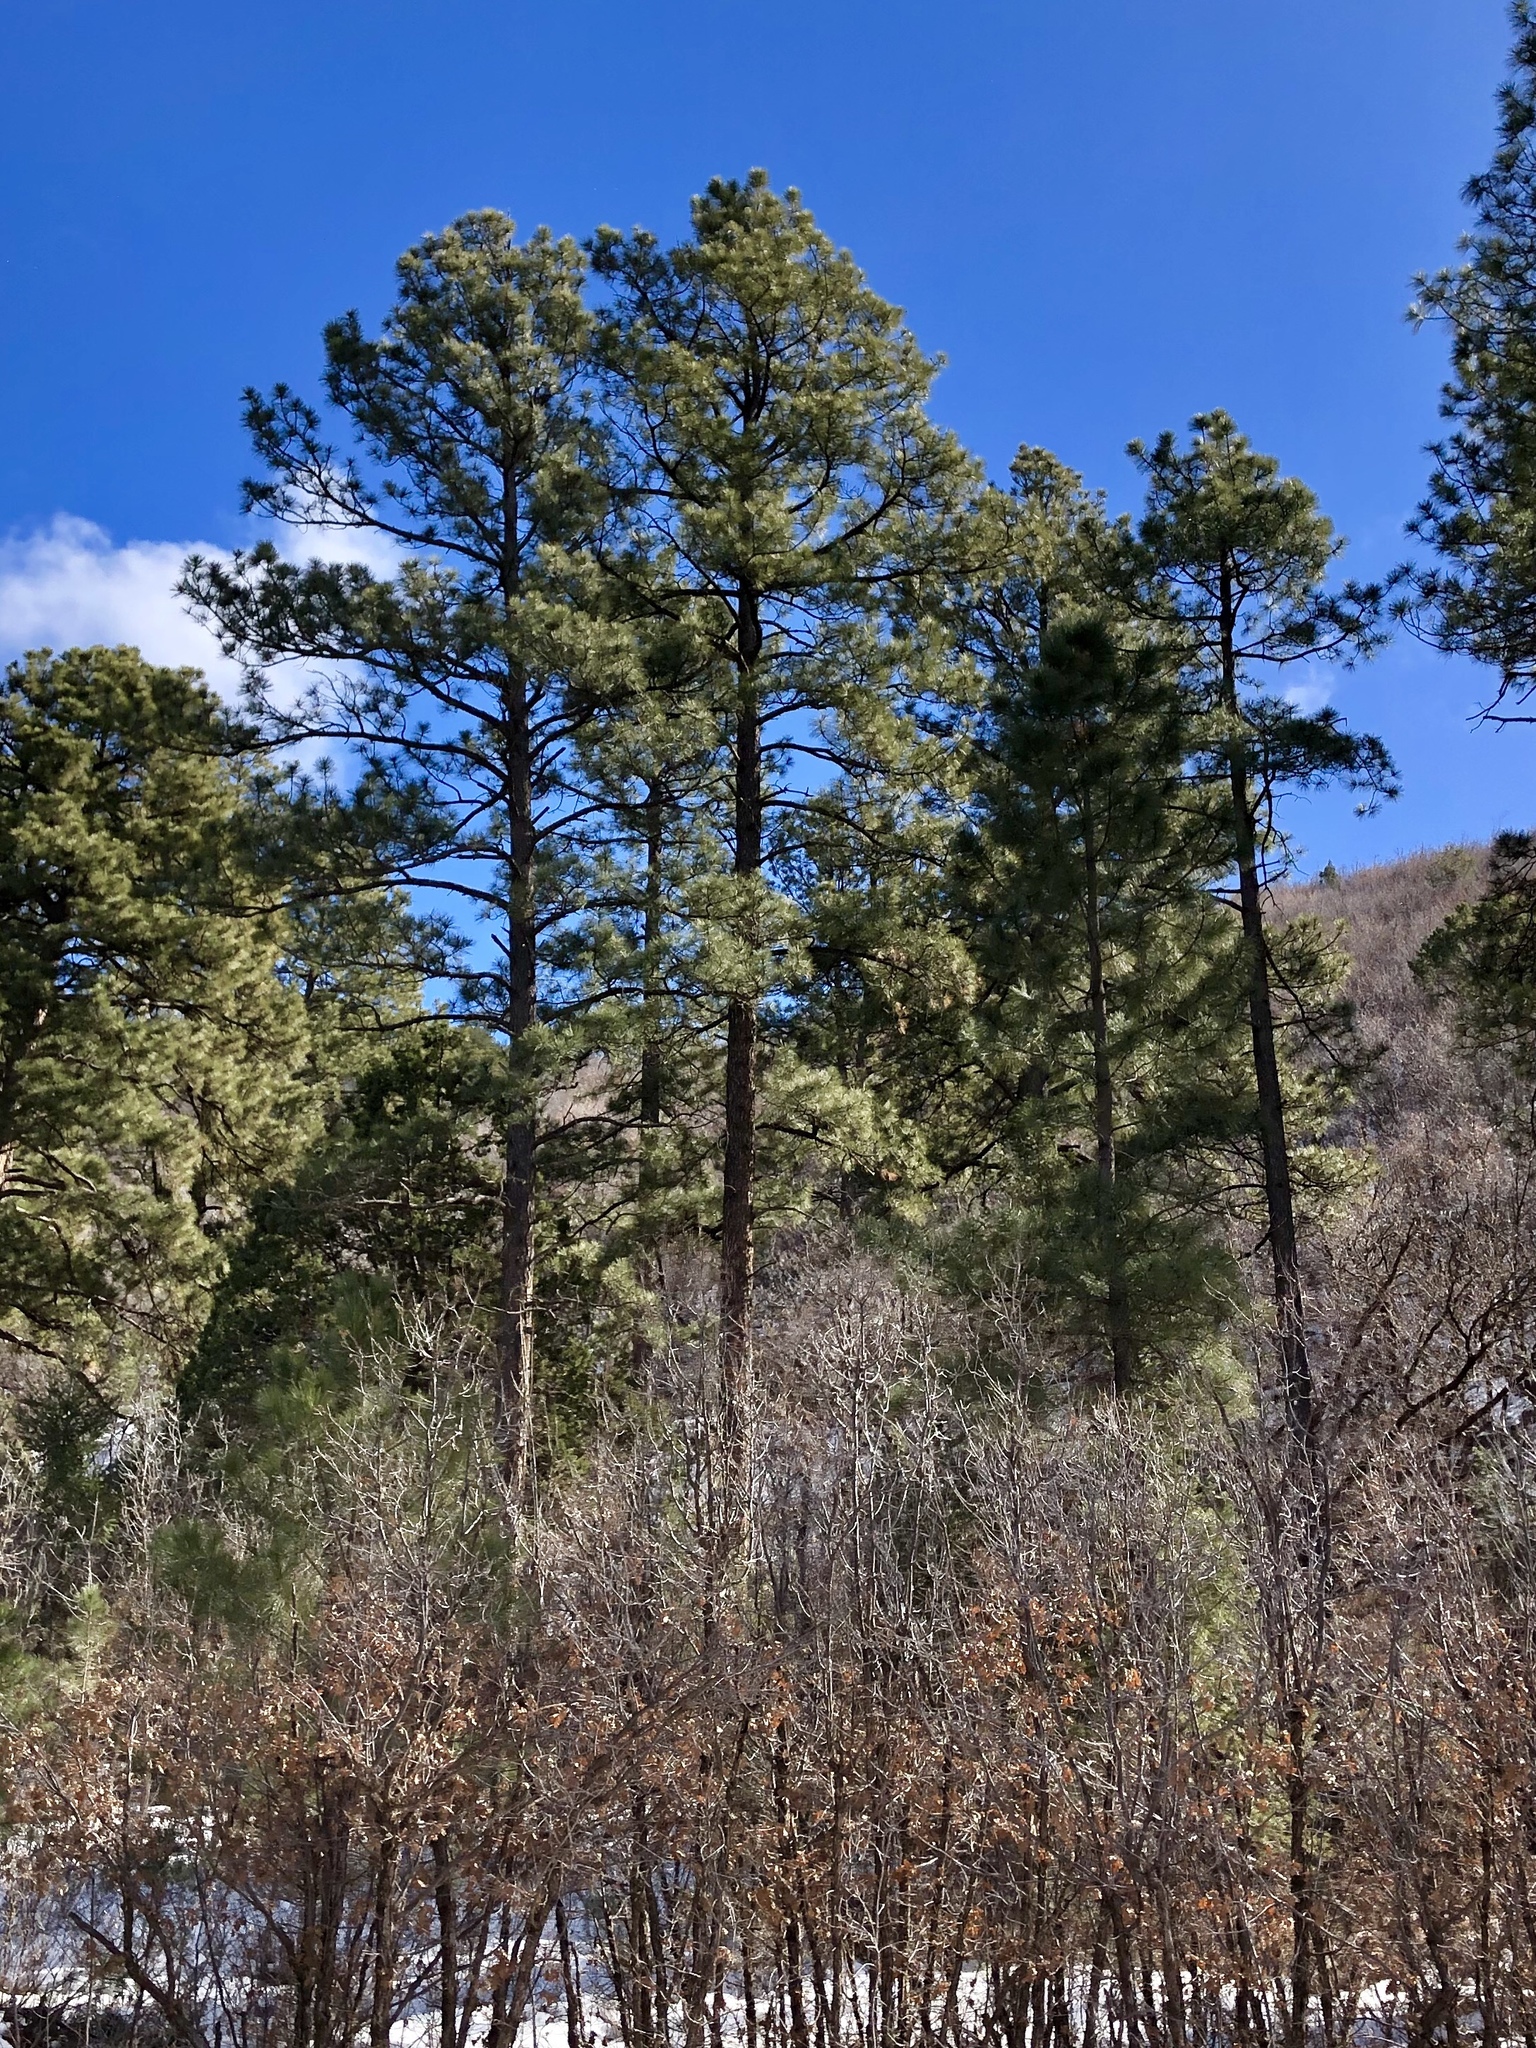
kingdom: Plantae
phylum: Tracheophyta
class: Pinopsida
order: Pinales
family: Pinaceae
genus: Pinus
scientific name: Pinus ponderosa
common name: Western yellow-pine
